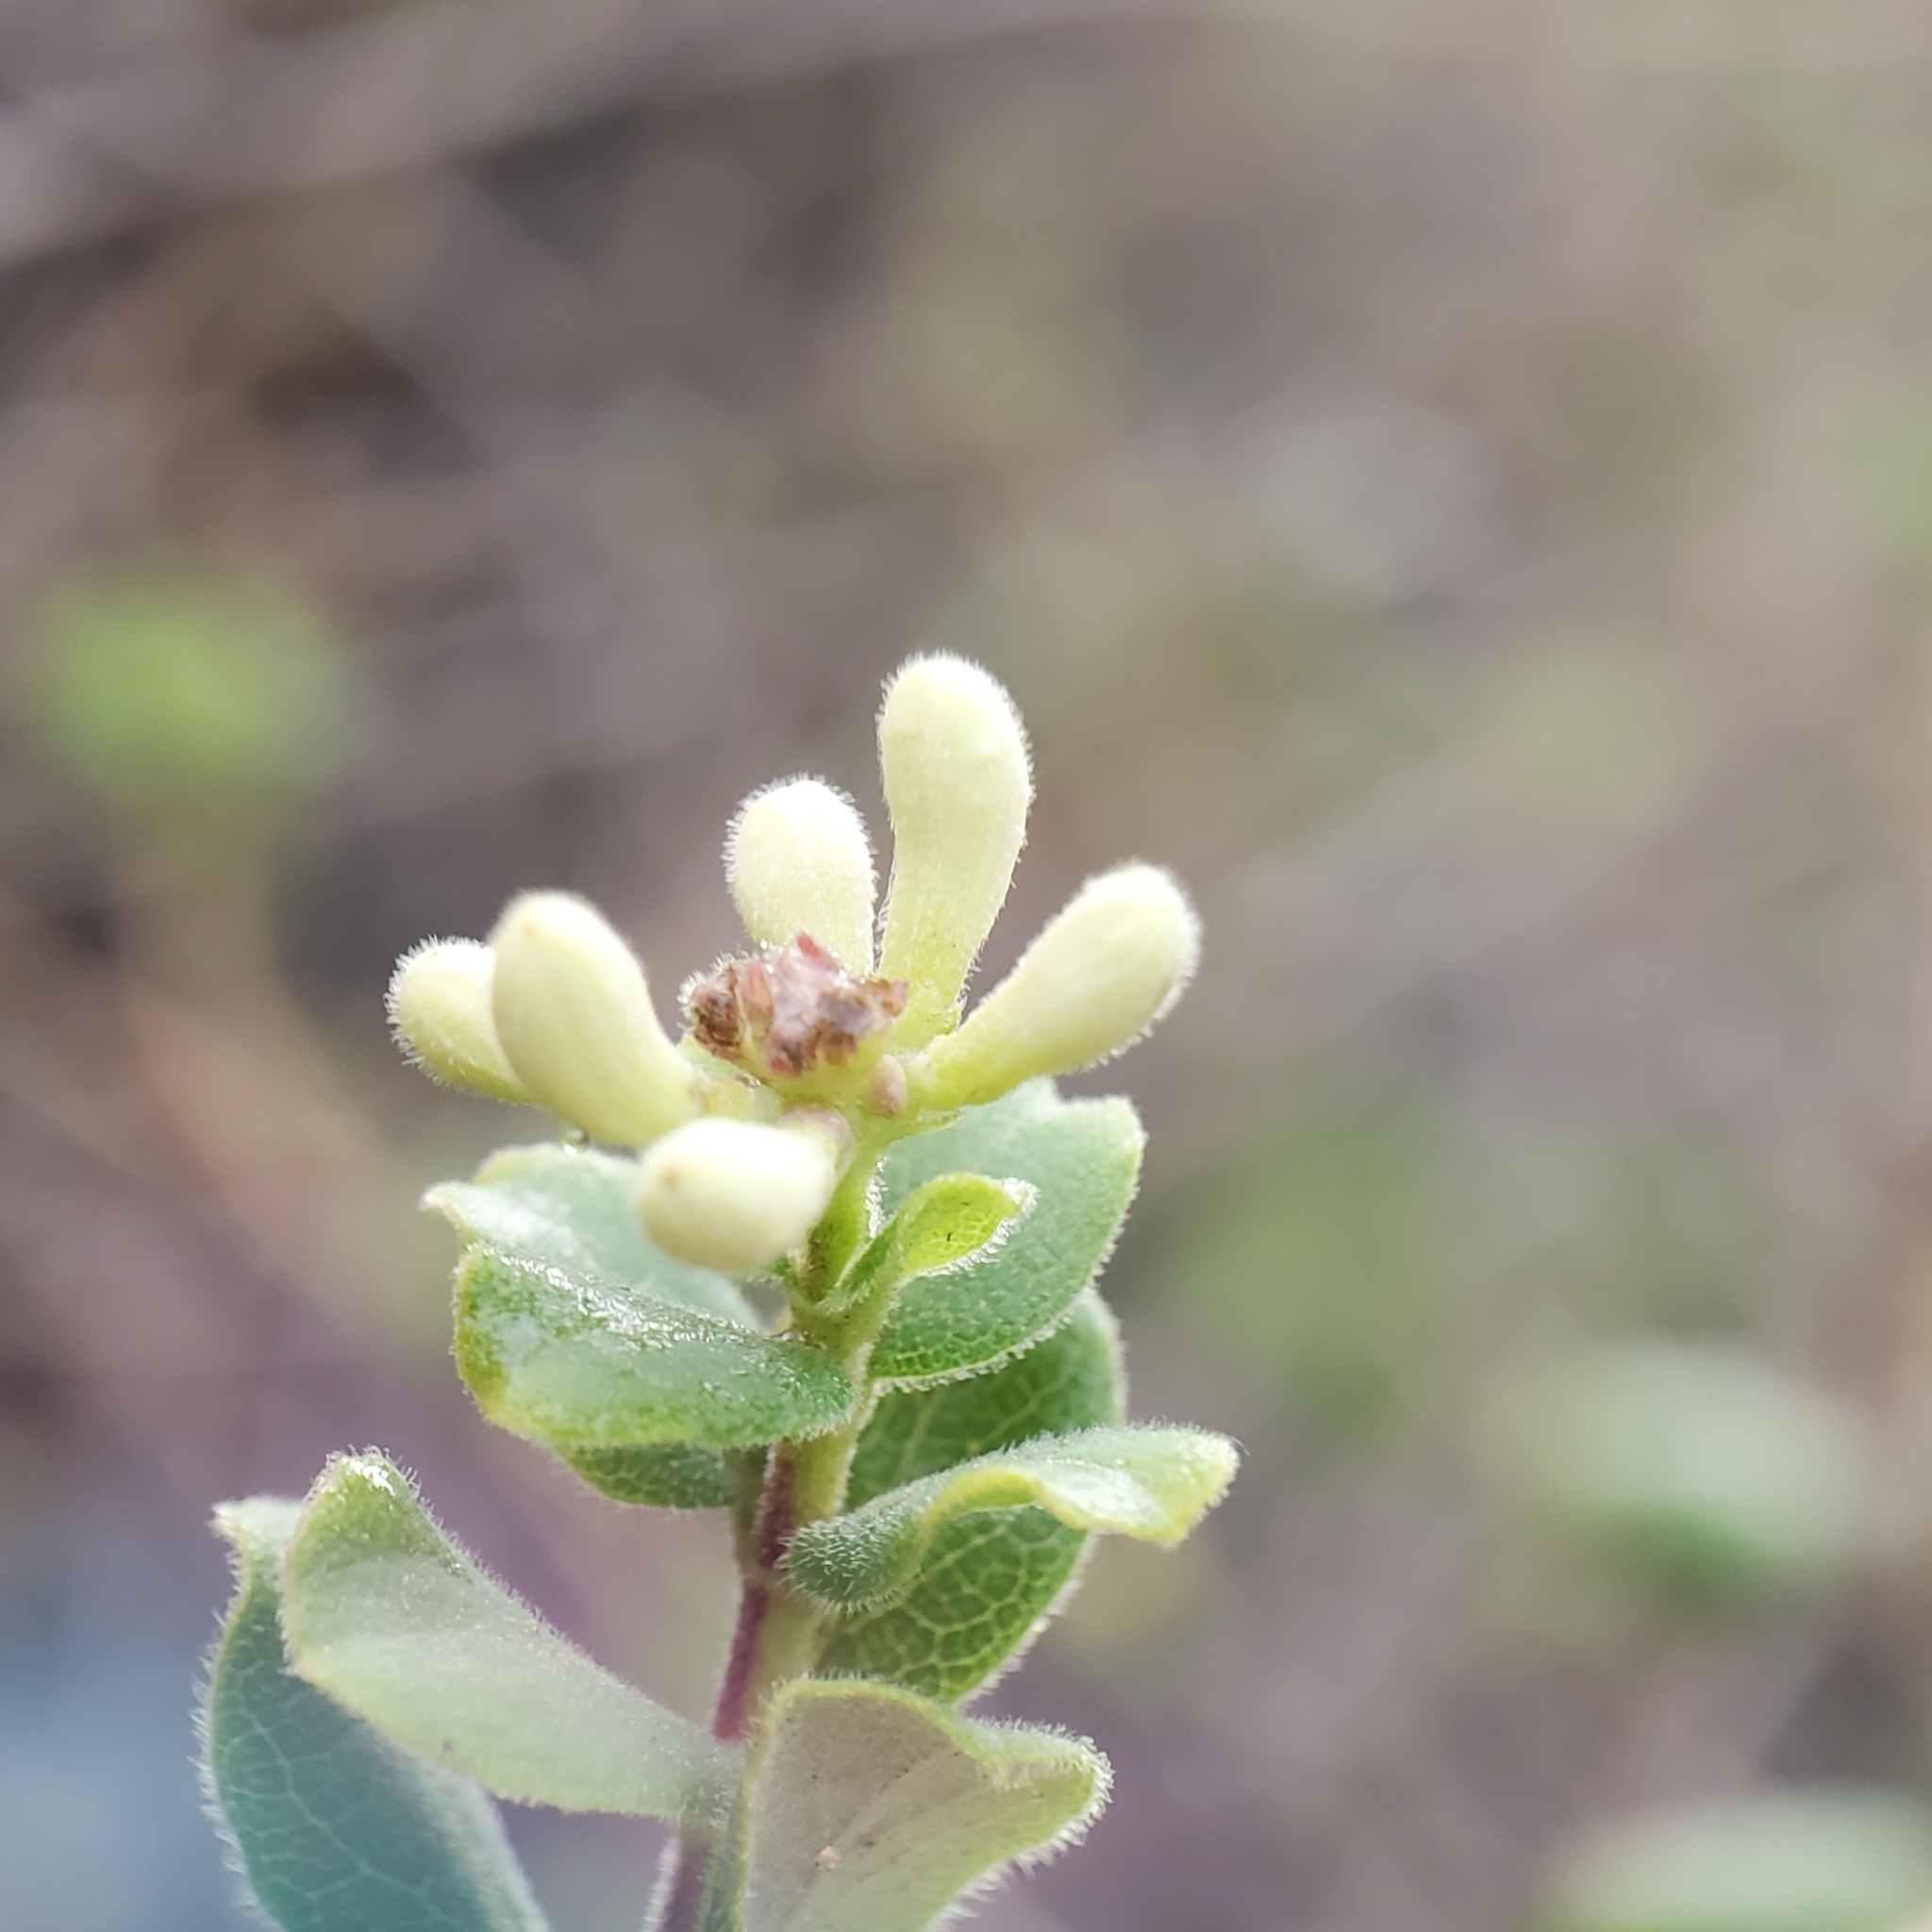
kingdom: Plantae
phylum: Tracheophyta
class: Magnoliopsida
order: Dipsacales
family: Caprifoliaceae
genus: Lonicera
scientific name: Lonicera subspicata
